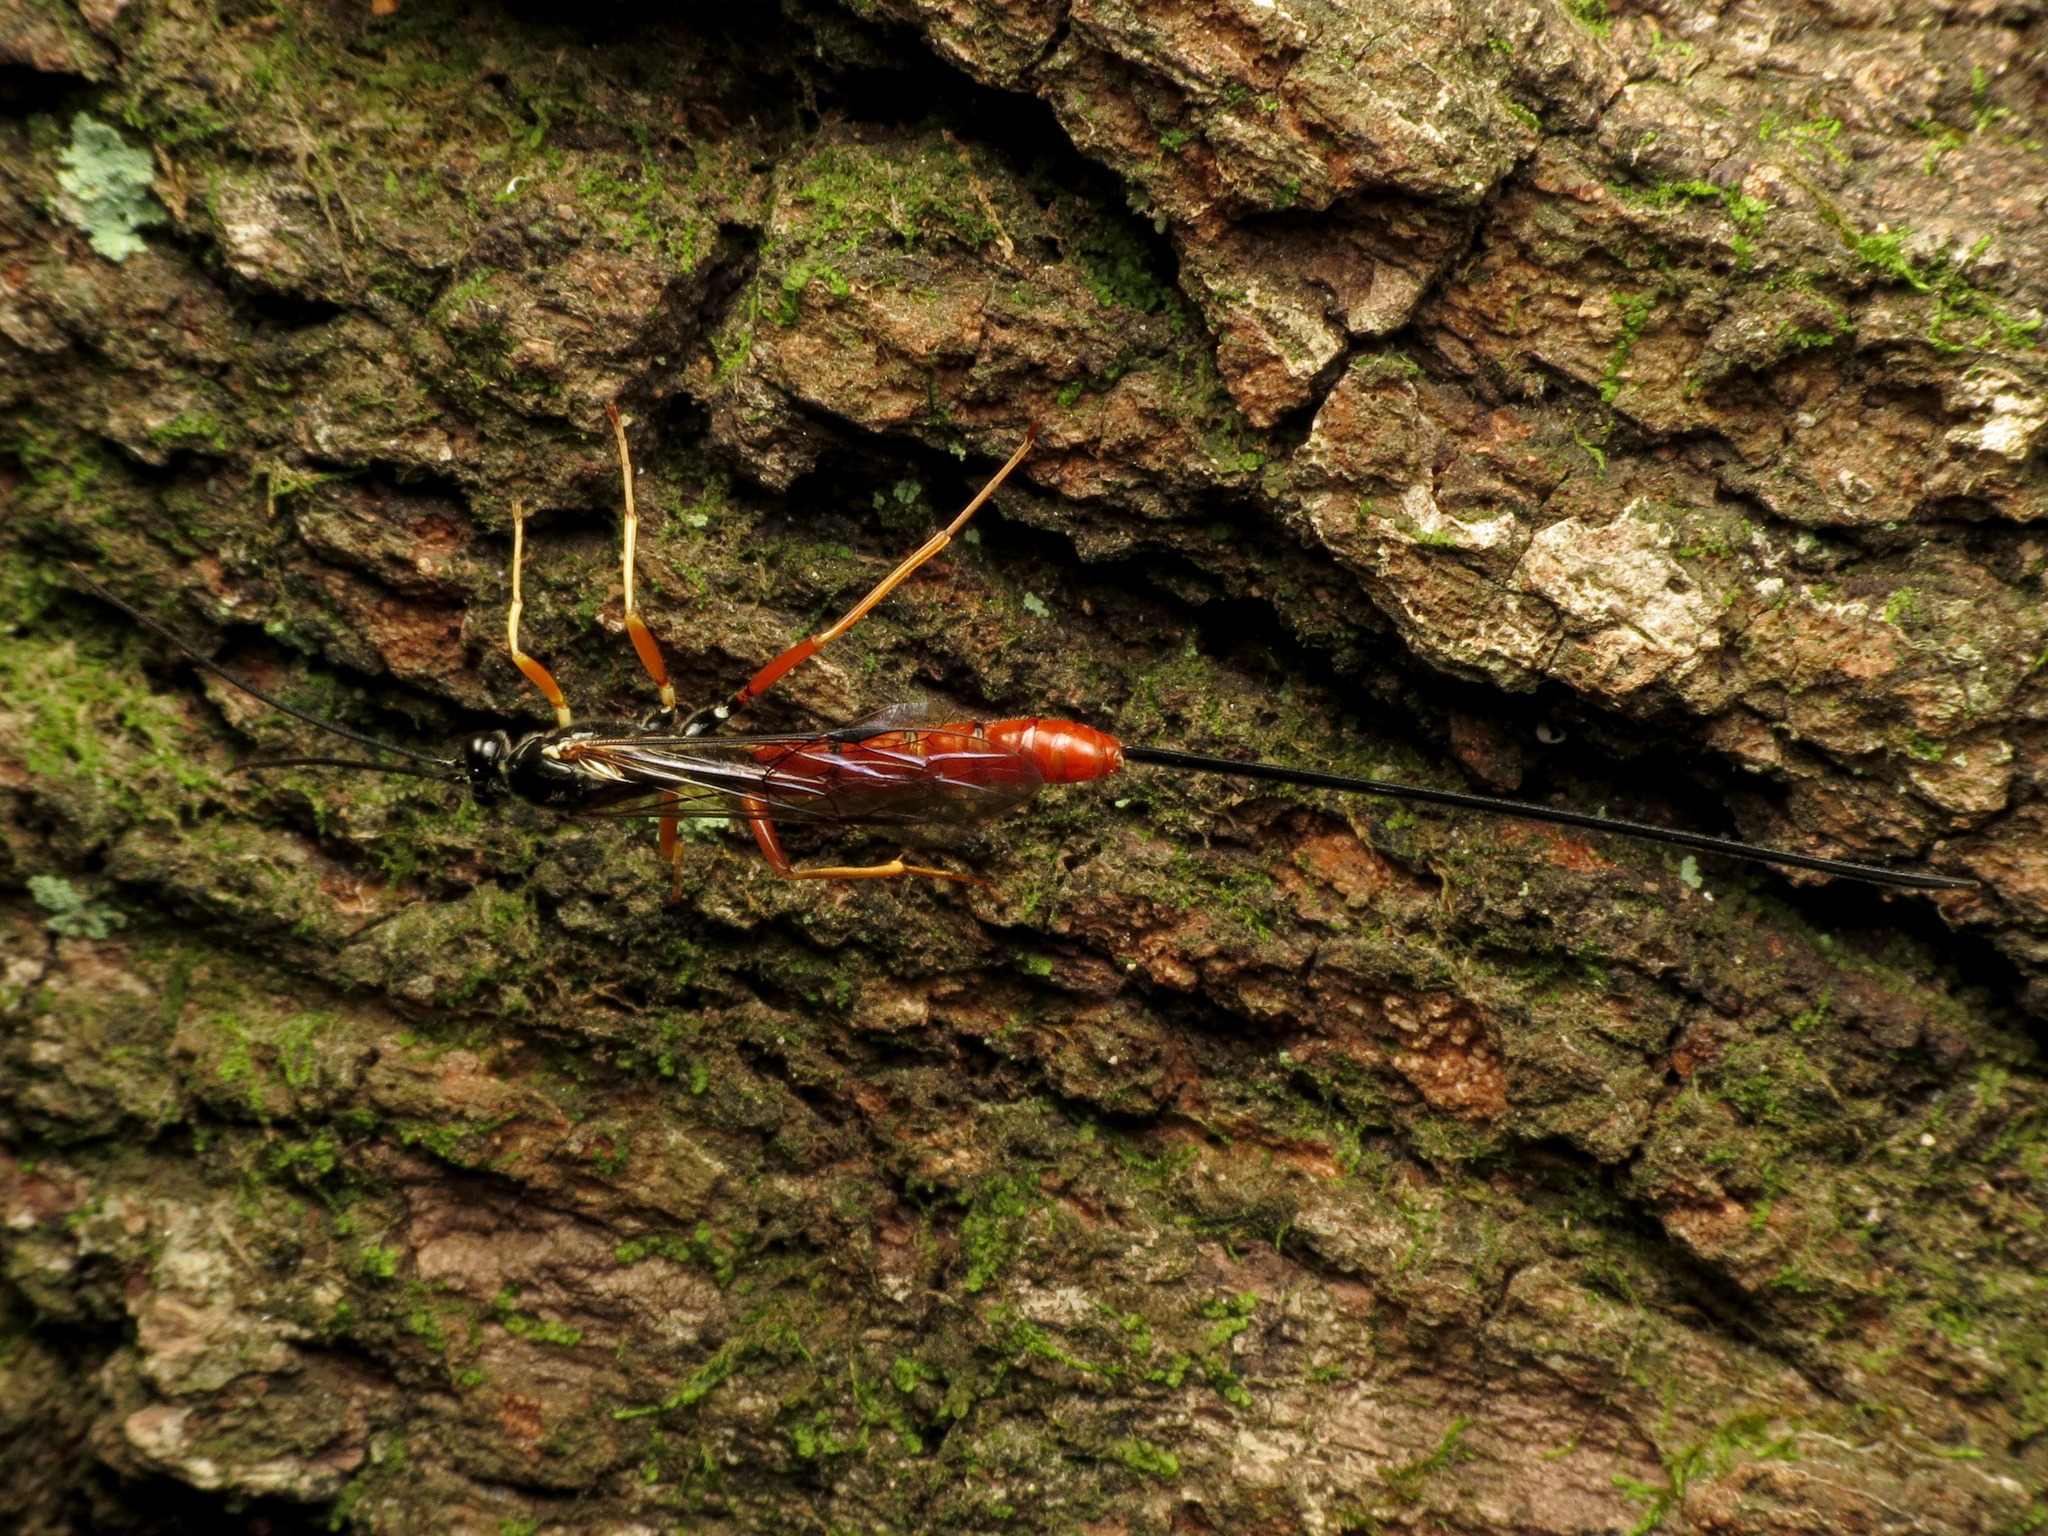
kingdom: Animalia
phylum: Arthropoda
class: Insecta
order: Hymenoptera
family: Ichneumonidae
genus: Dolichomitus
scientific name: Dolichomitus irritator
